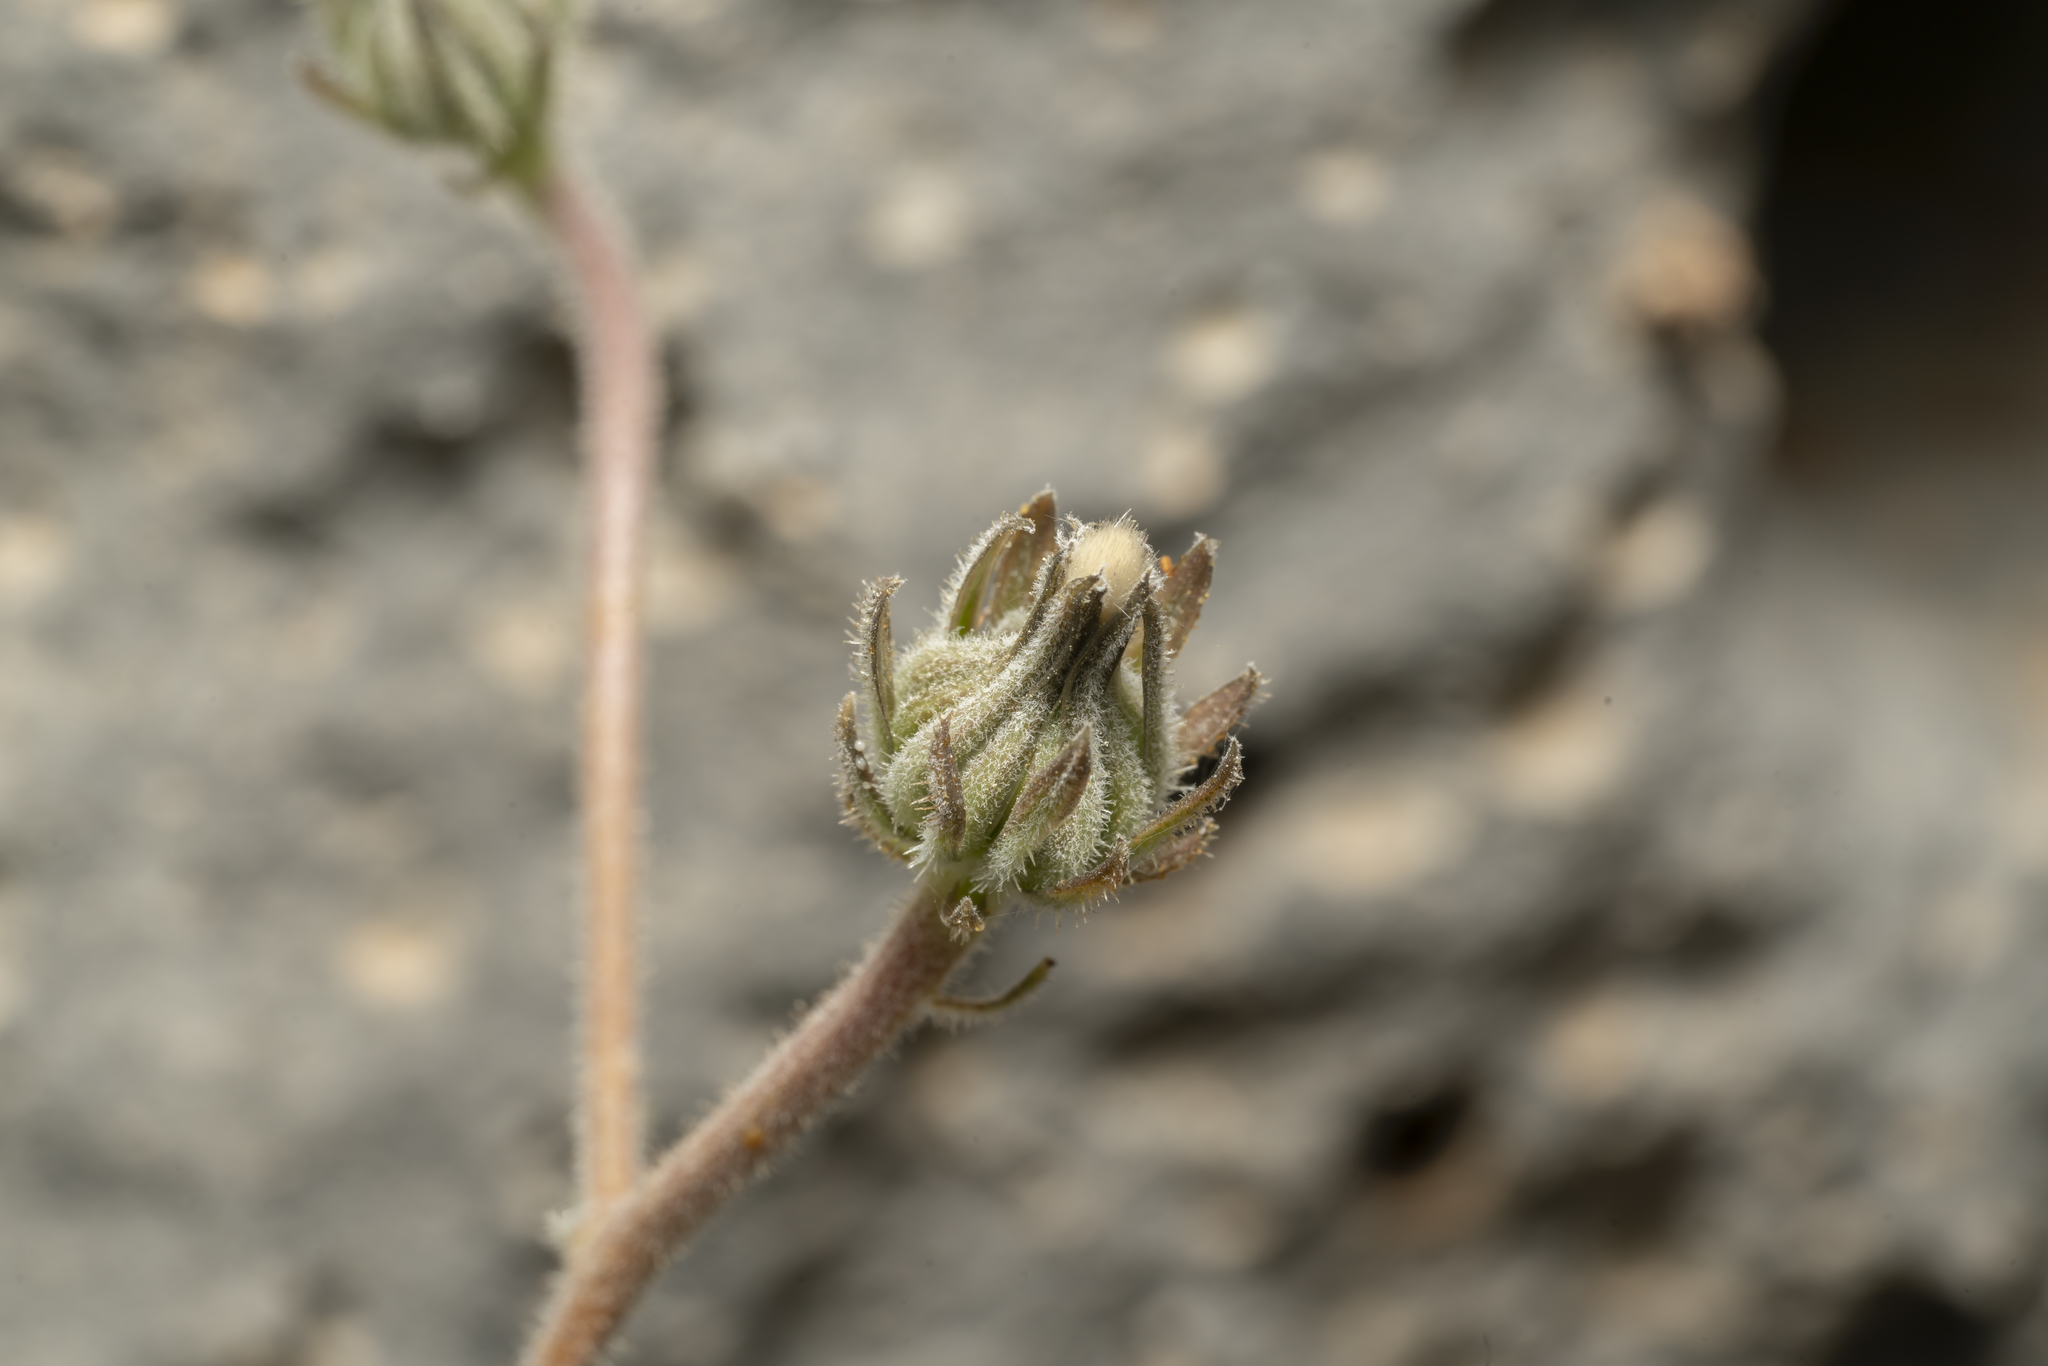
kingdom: Plantae
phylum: Tracheophyta
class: Magnoliopsida
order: Asterales
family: Asteraceae
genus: Picris
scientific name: Picris pauciflora
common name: Smallflower oxtongue
